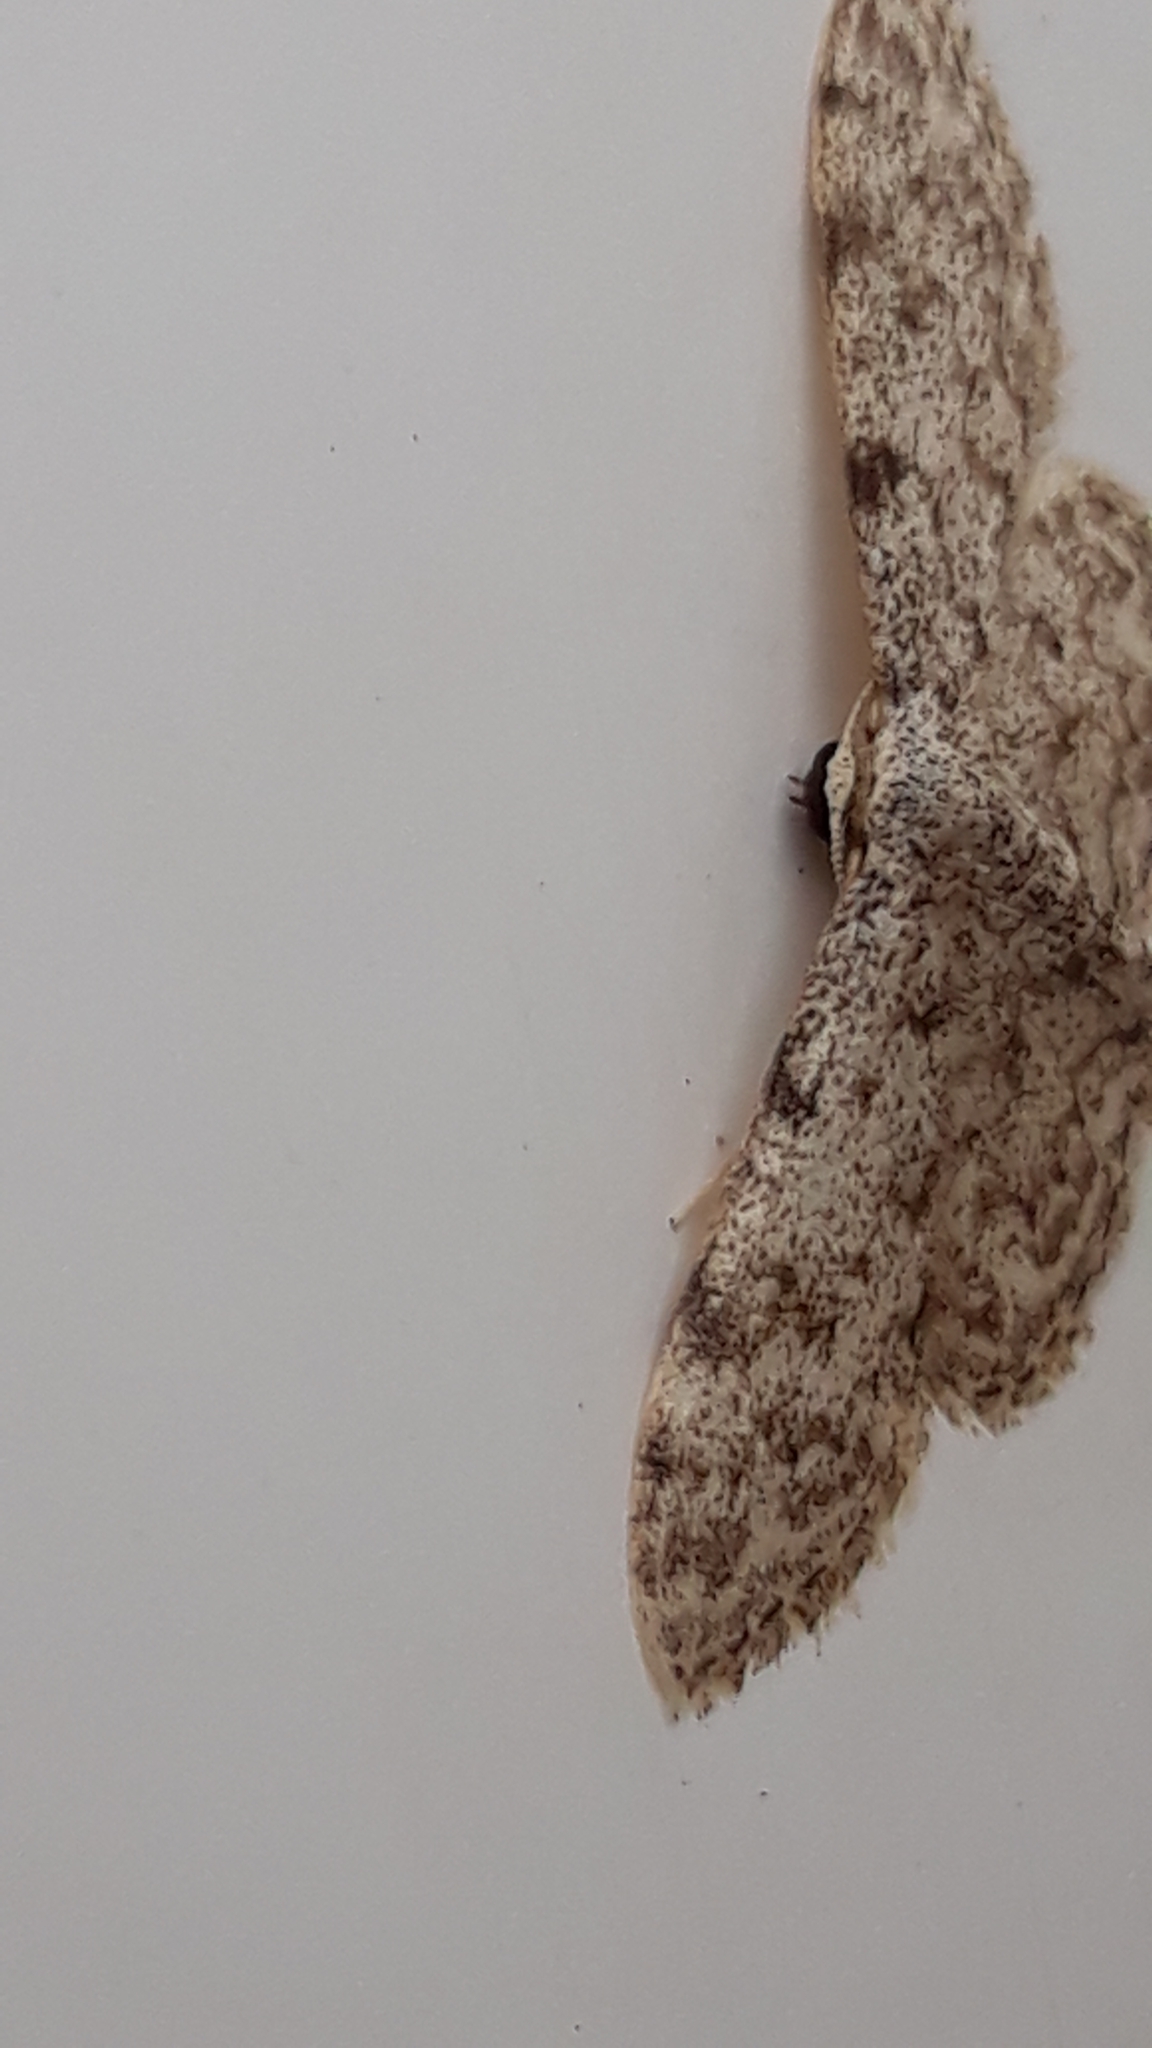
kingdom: Animalia
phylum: Arthropoda
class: Insecta
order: Lepidoptera
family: Geometridae
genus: Idaea
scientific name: Idaea cervantaria
